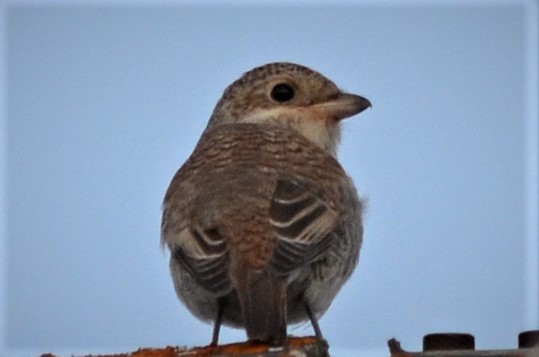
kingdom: Animalia
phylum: Chordata
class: Aves
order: Passeriformes
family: Laniidae
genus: Lanius
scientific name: Lanius collurio
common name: Red-backed shrike
